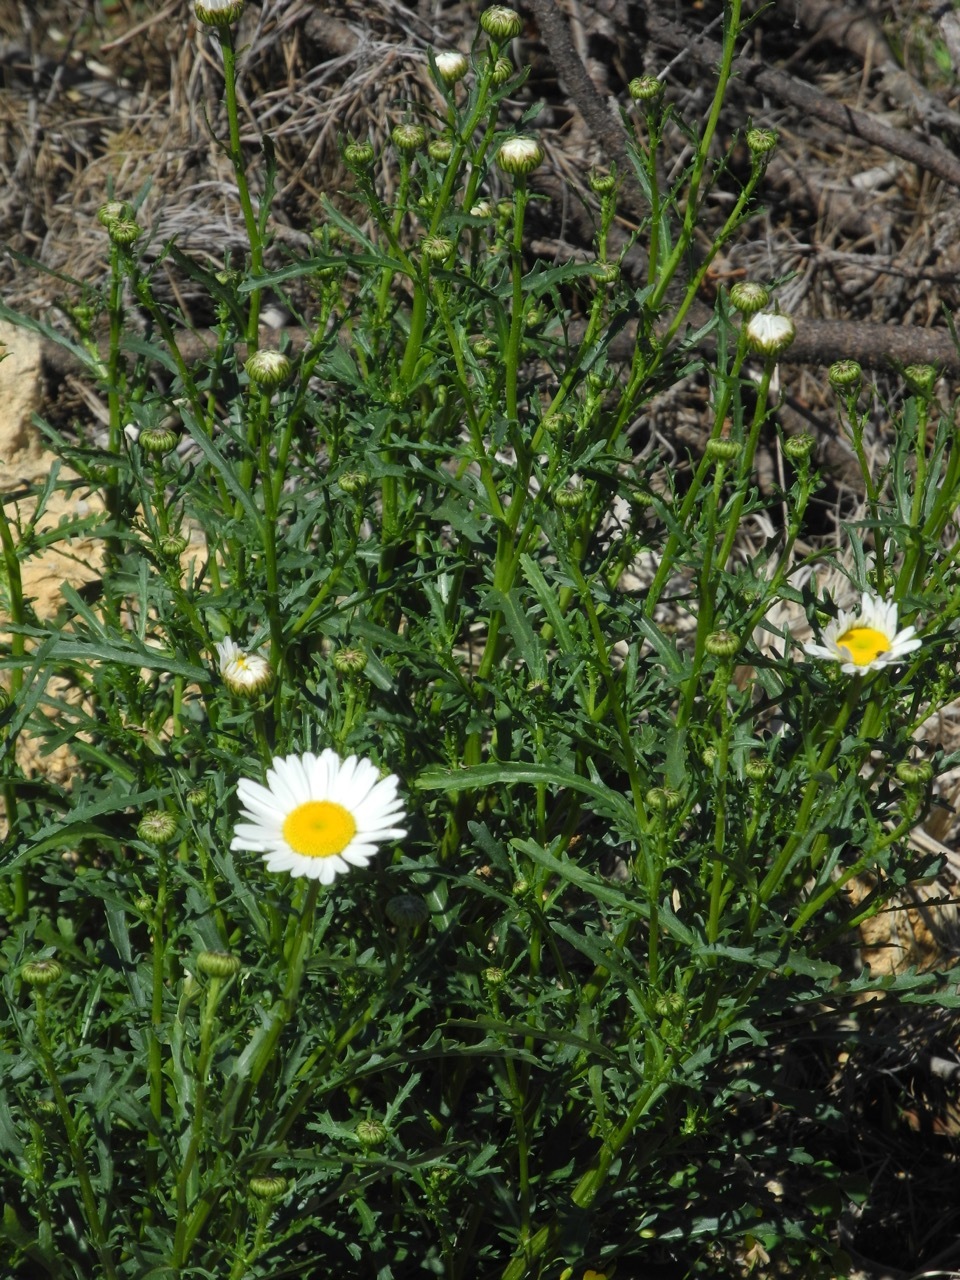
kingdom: Plantae
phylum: Tracheophyta
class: Magnoliopsida
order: Asterales
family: Asteraceae
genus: Leucanthemum
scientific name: Leucanthemum vulgare
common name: Oxeye daisy
